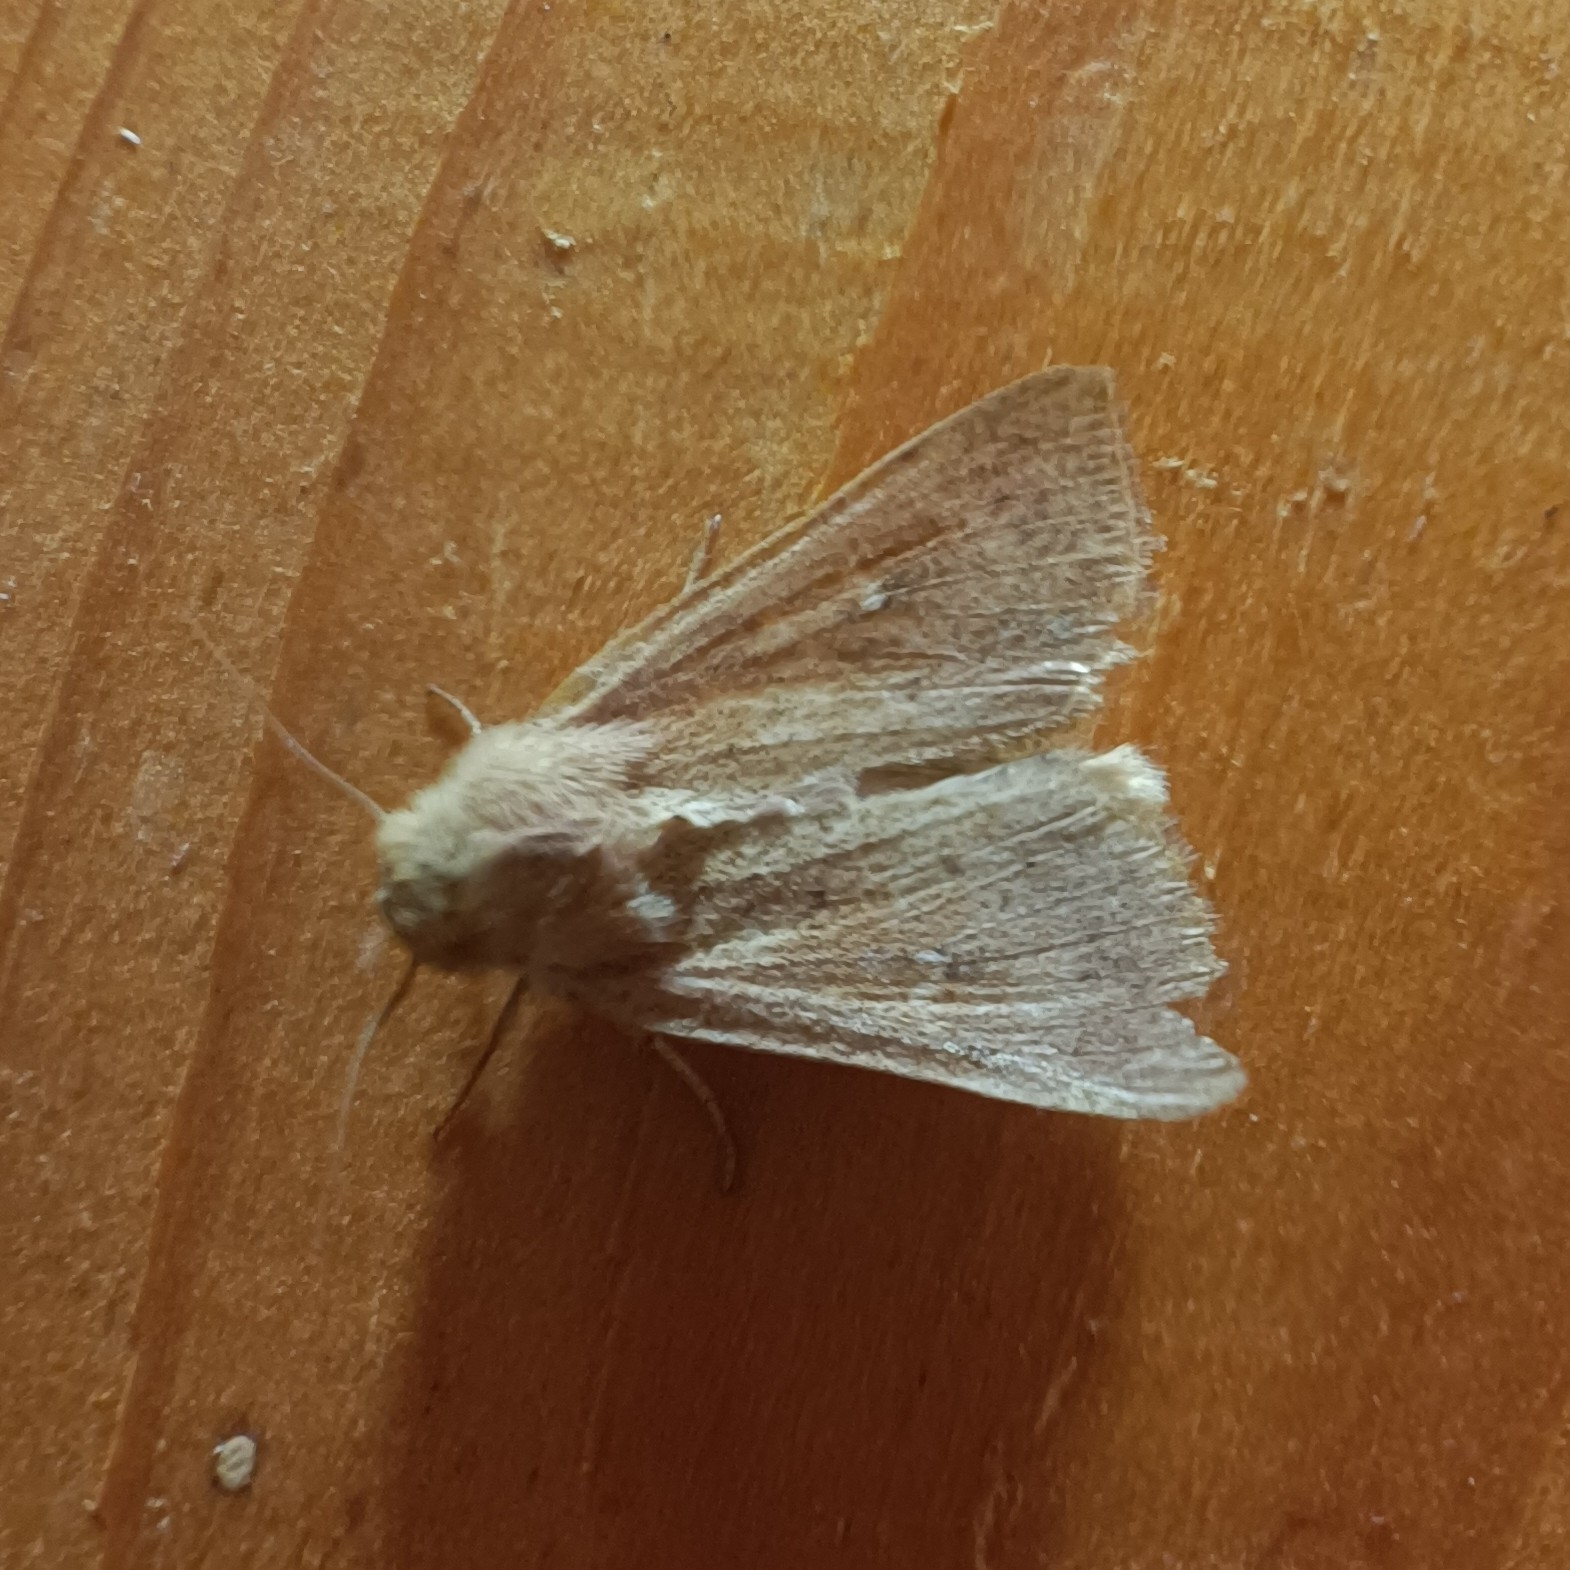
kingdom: Animalia
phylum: Arthropoda
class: Insecta
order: Lepidoptera
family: Noctuidae
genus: Mythimna
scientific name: Mythimna ferrago
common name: Clay
